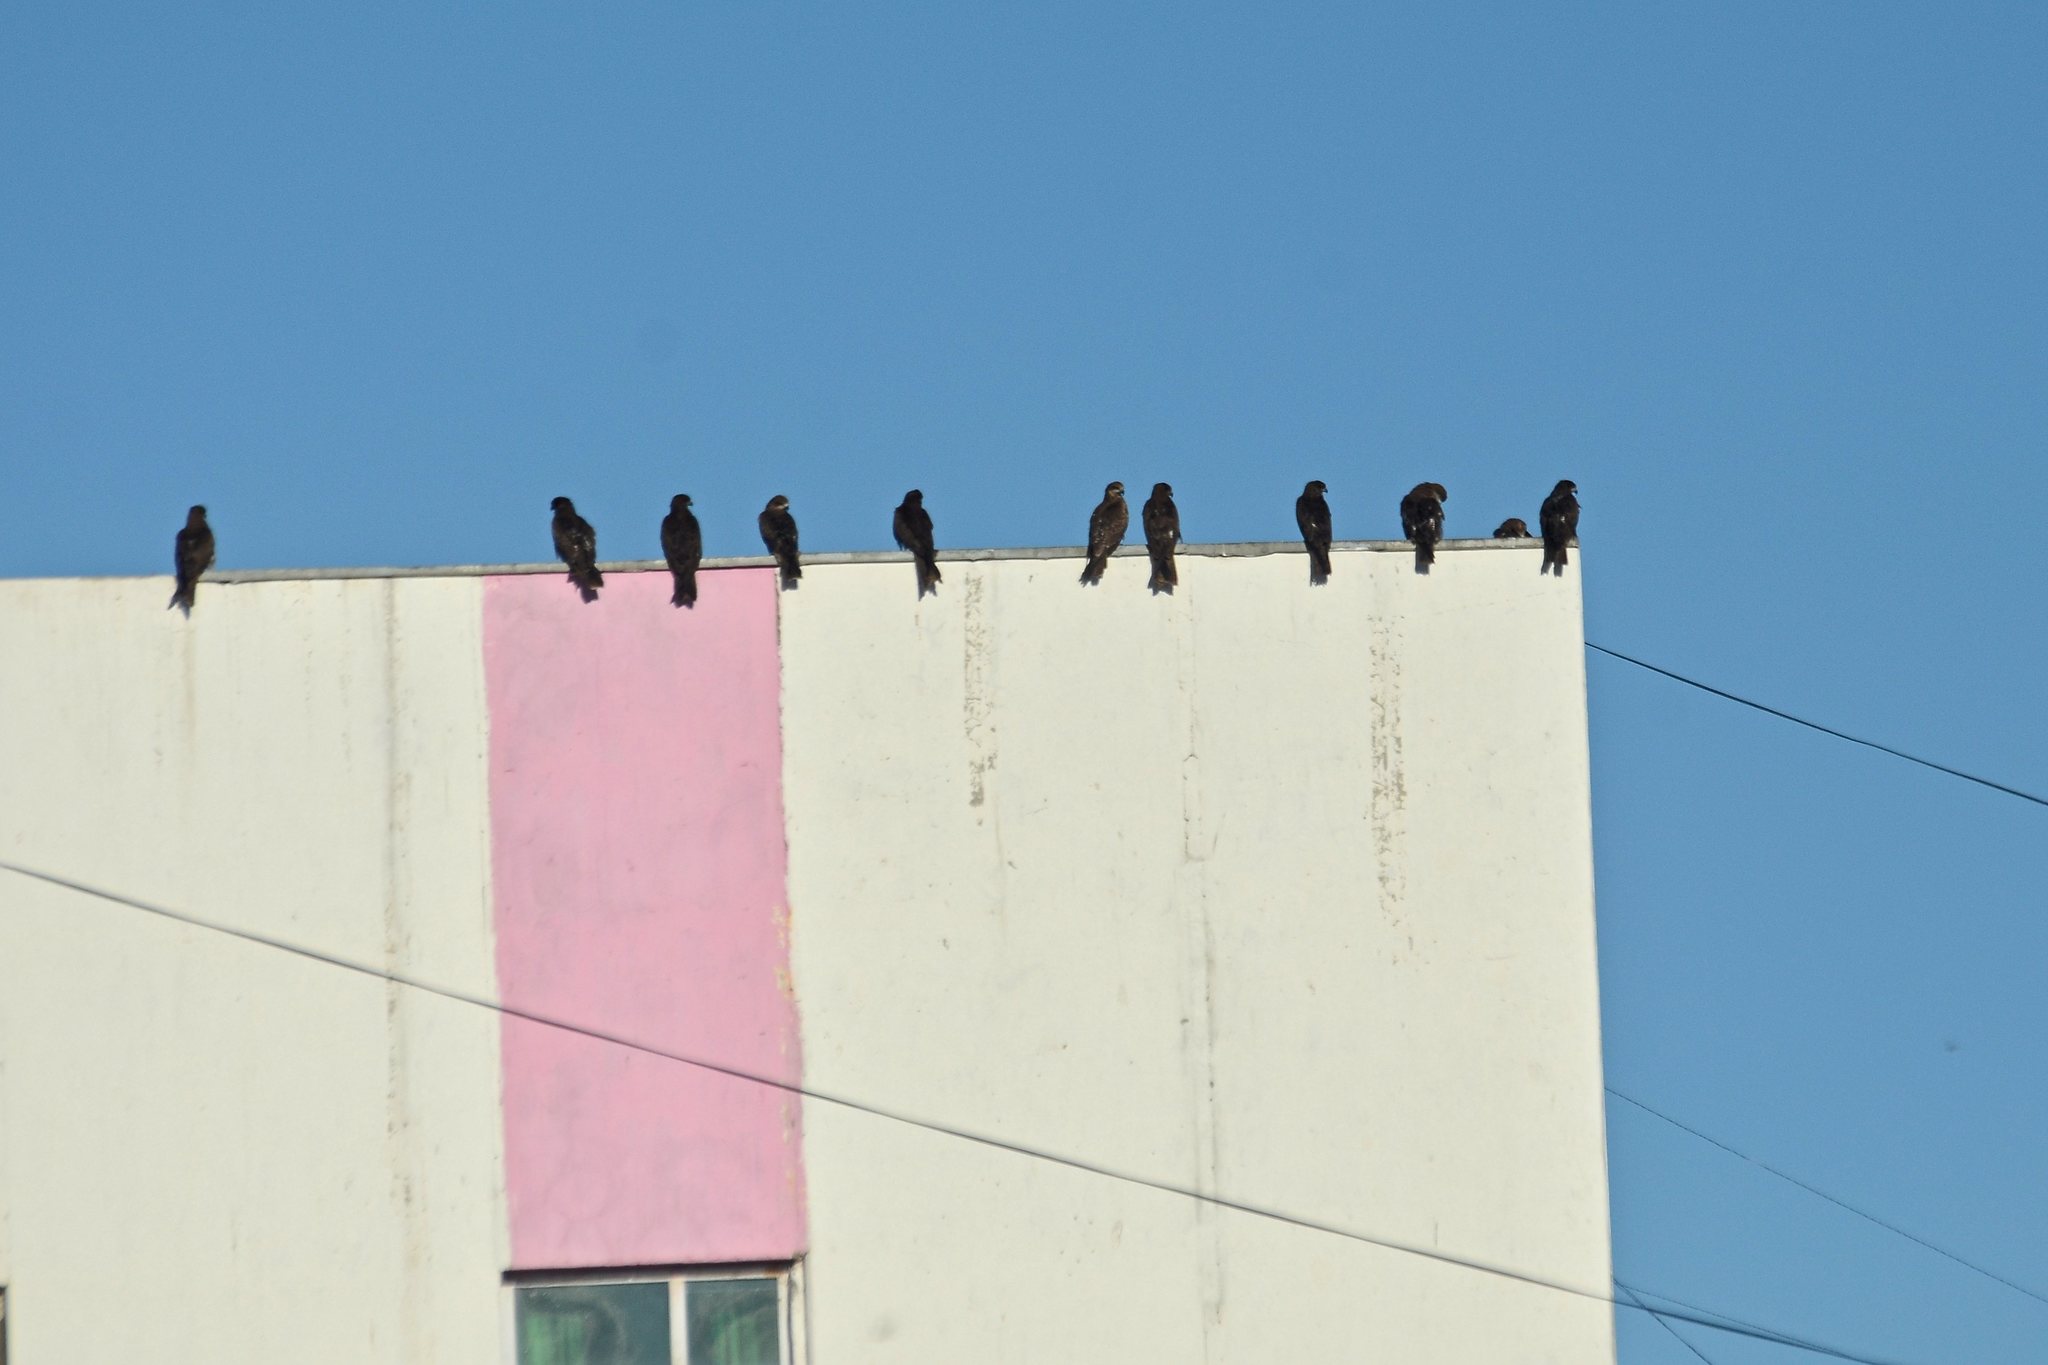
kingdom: Animalia
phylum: Chordata
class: Aves
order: Accipitriformes
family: Accipitridae
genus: Milvus
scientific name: Milvus migrans
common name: Black kite
